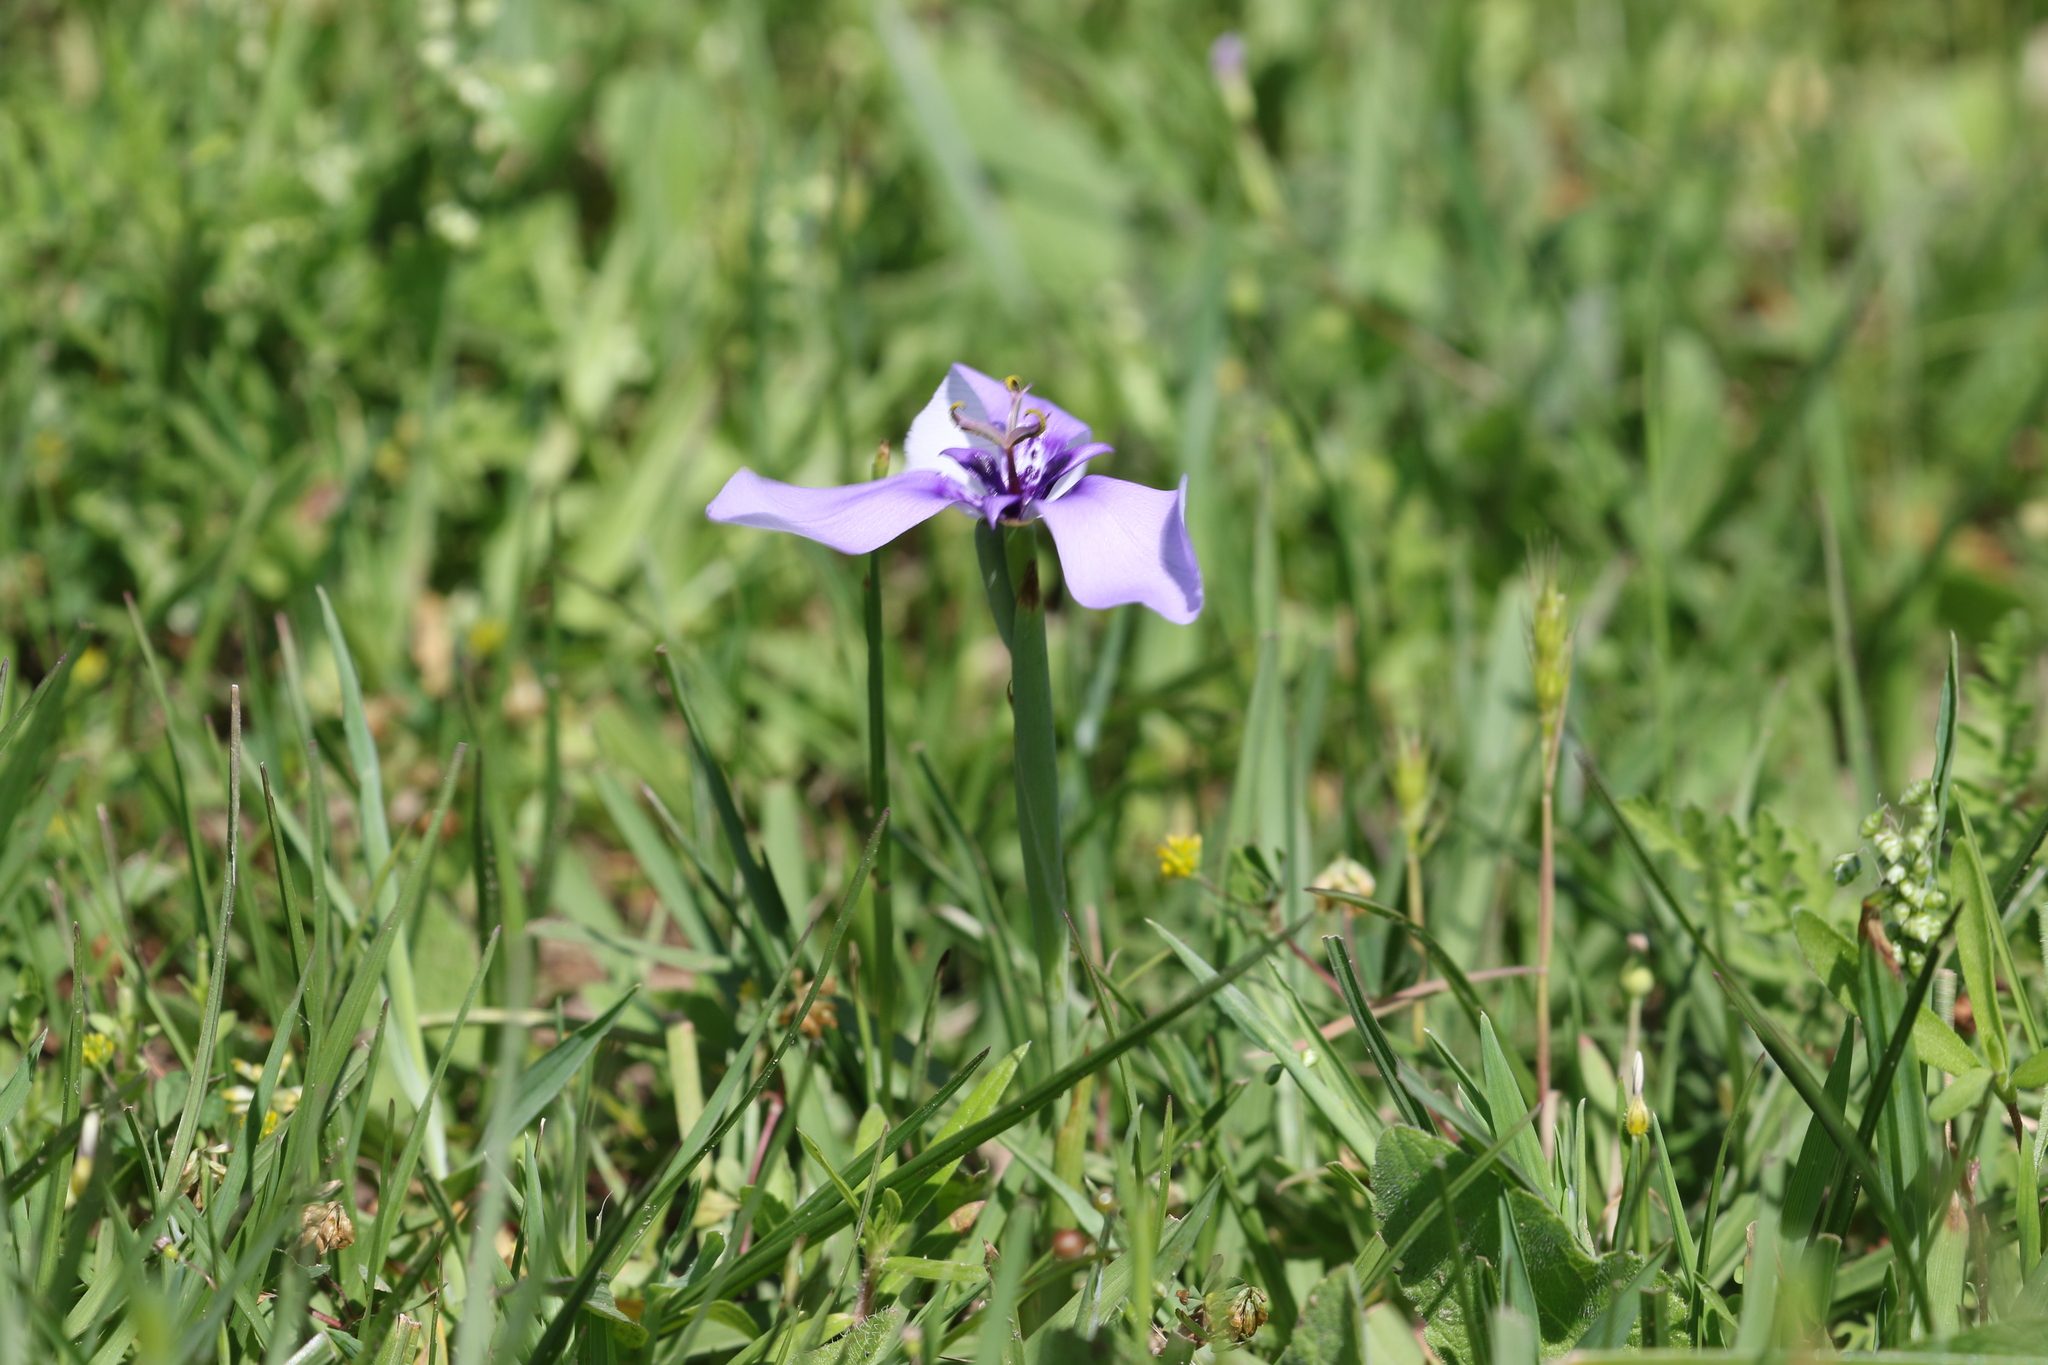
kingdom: Plantae
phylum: Tracheophyta
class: Liliopsida
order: Asparagales
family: Iridaceae
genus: Herbertia
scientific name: Herbertia lahue
